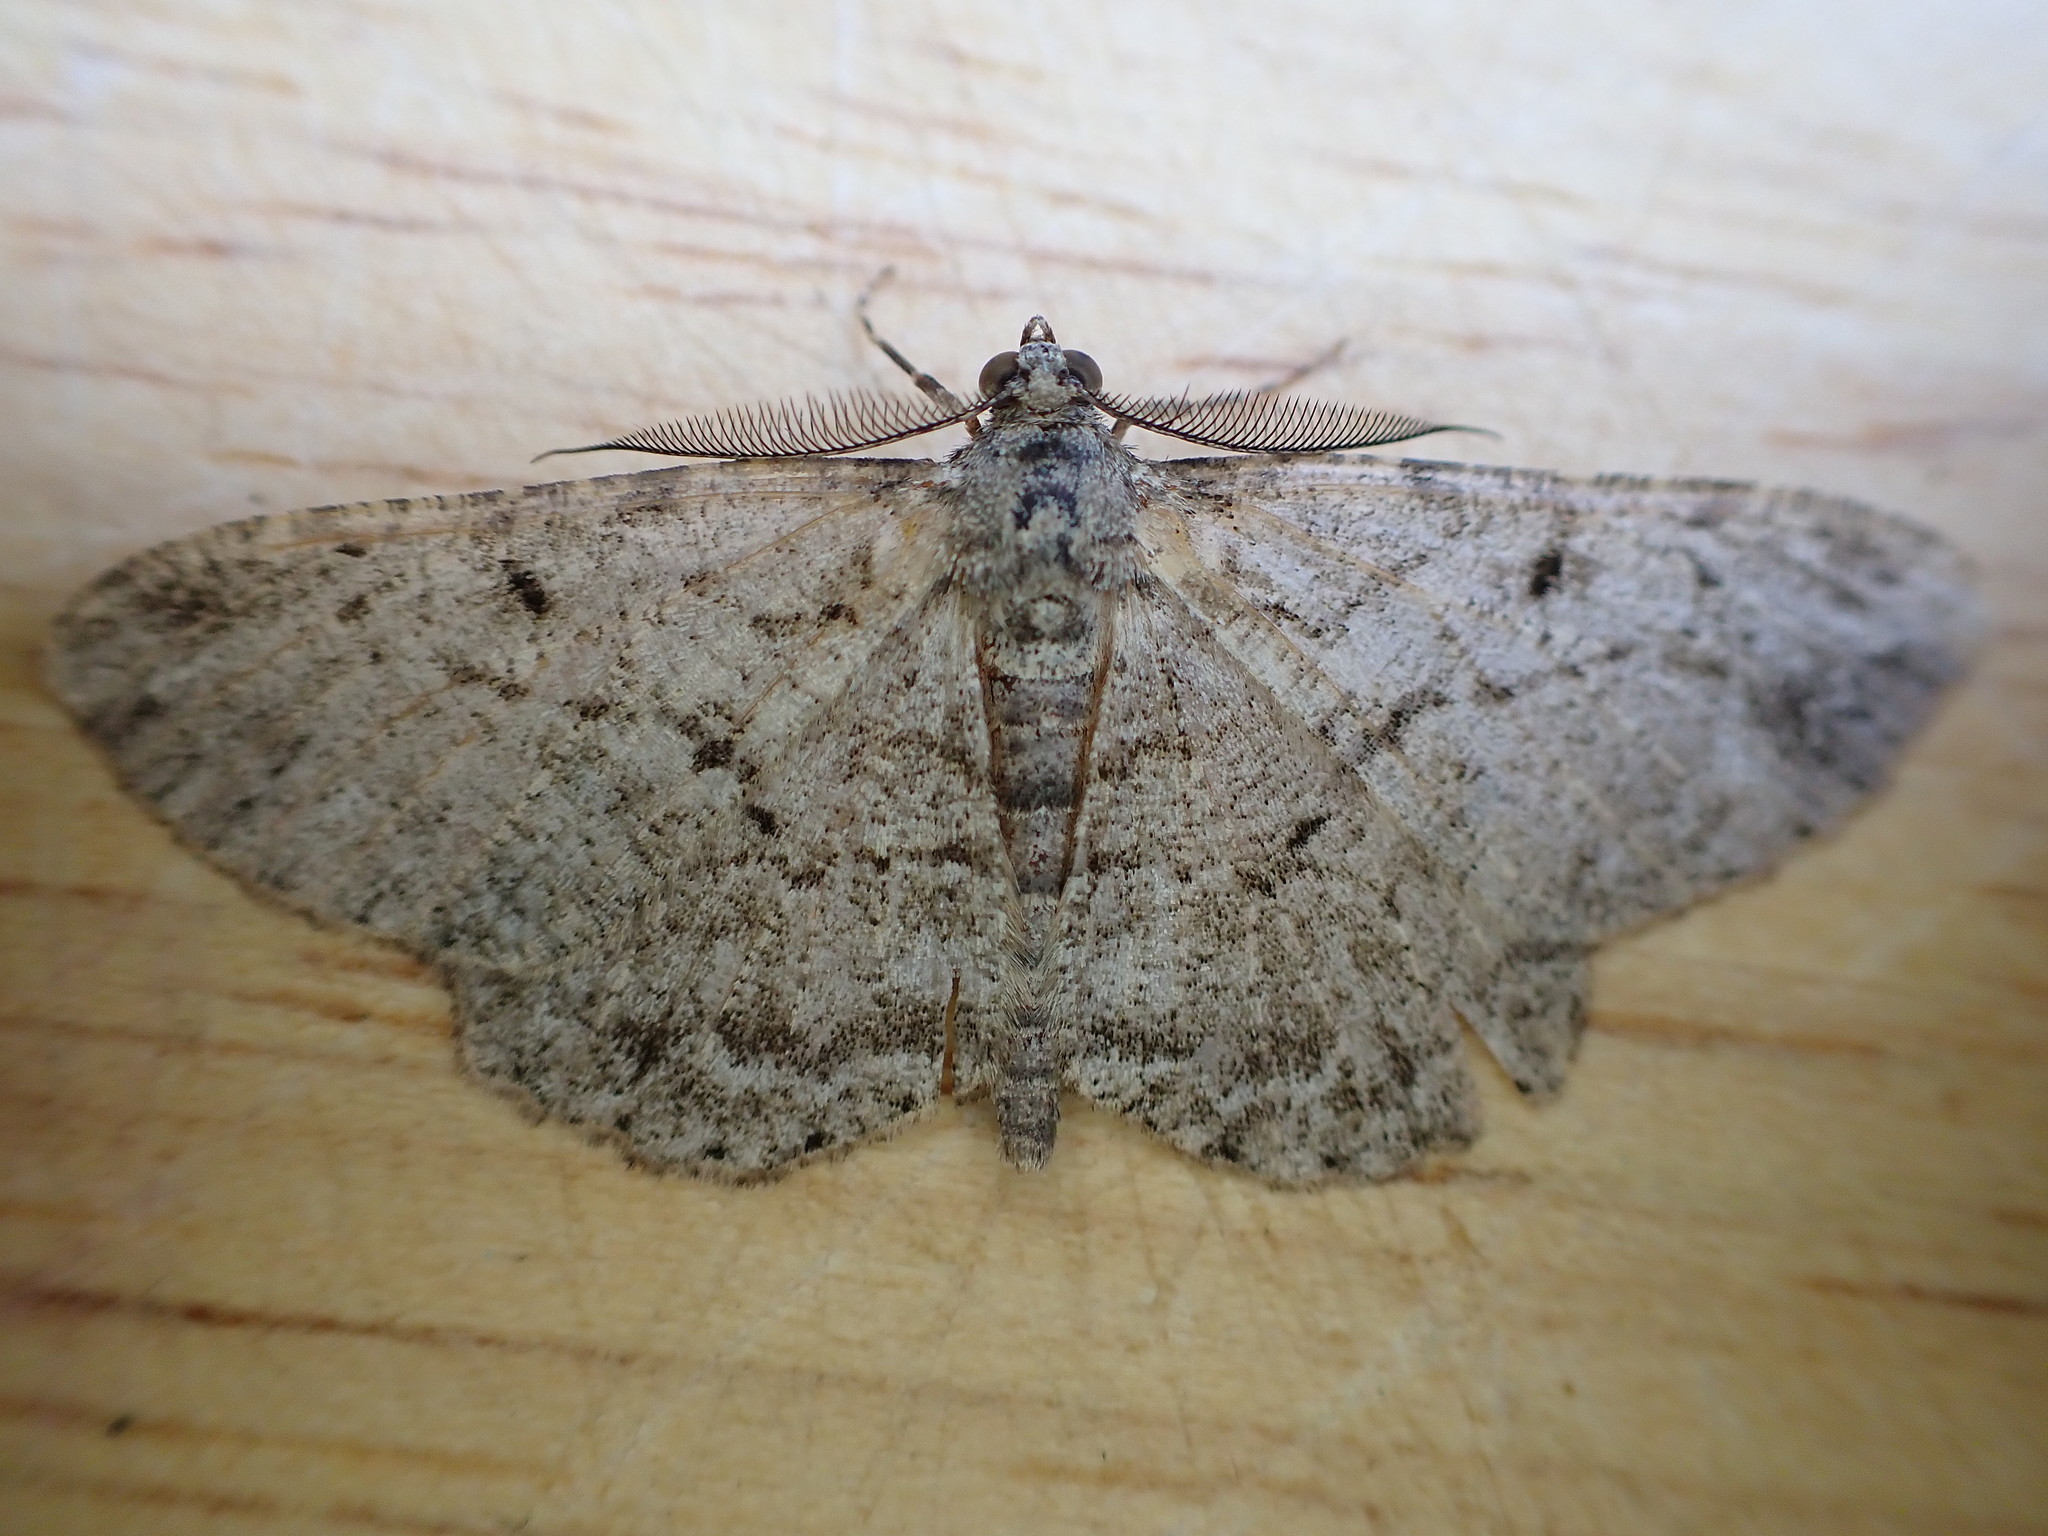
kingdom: Animalia
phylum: Arthropoda
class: Insecta
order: Lepidoptera
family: Geometridae
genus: Peribatodes
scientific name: Peribatodes rhomboidaria
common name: Willow beauty
